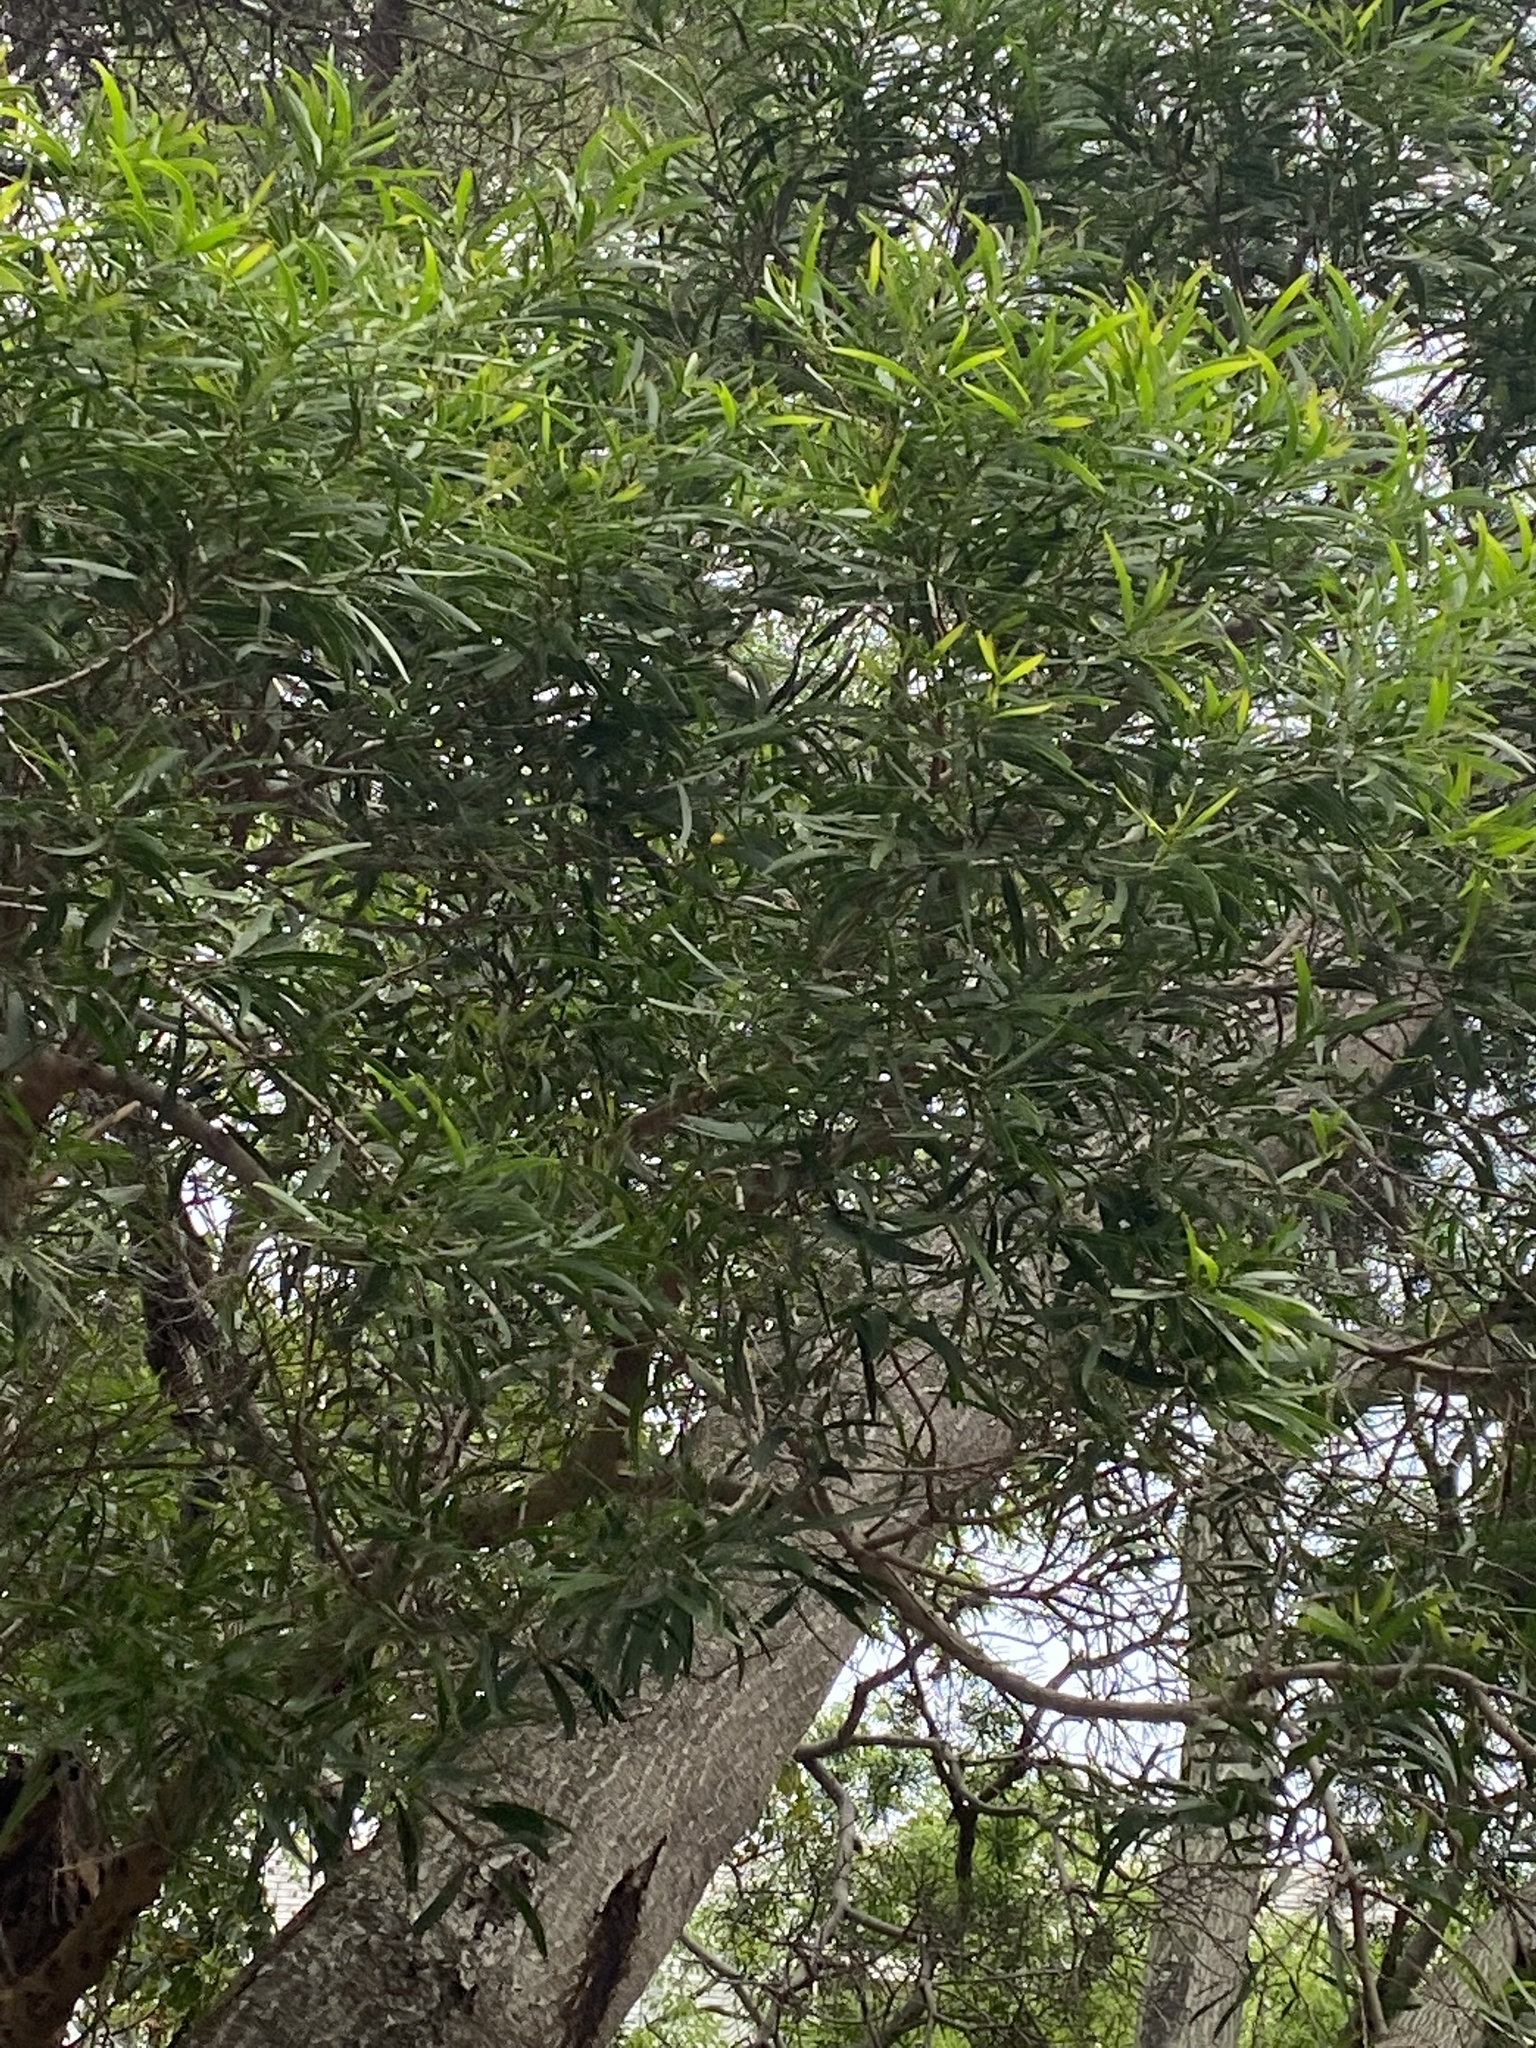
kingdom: Plantae
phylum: Tracheophyta
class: Magnoliopsida
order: Fabales
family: Fabaceae
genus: Acacia
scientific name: Acacia confusa
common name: Formosan koa
